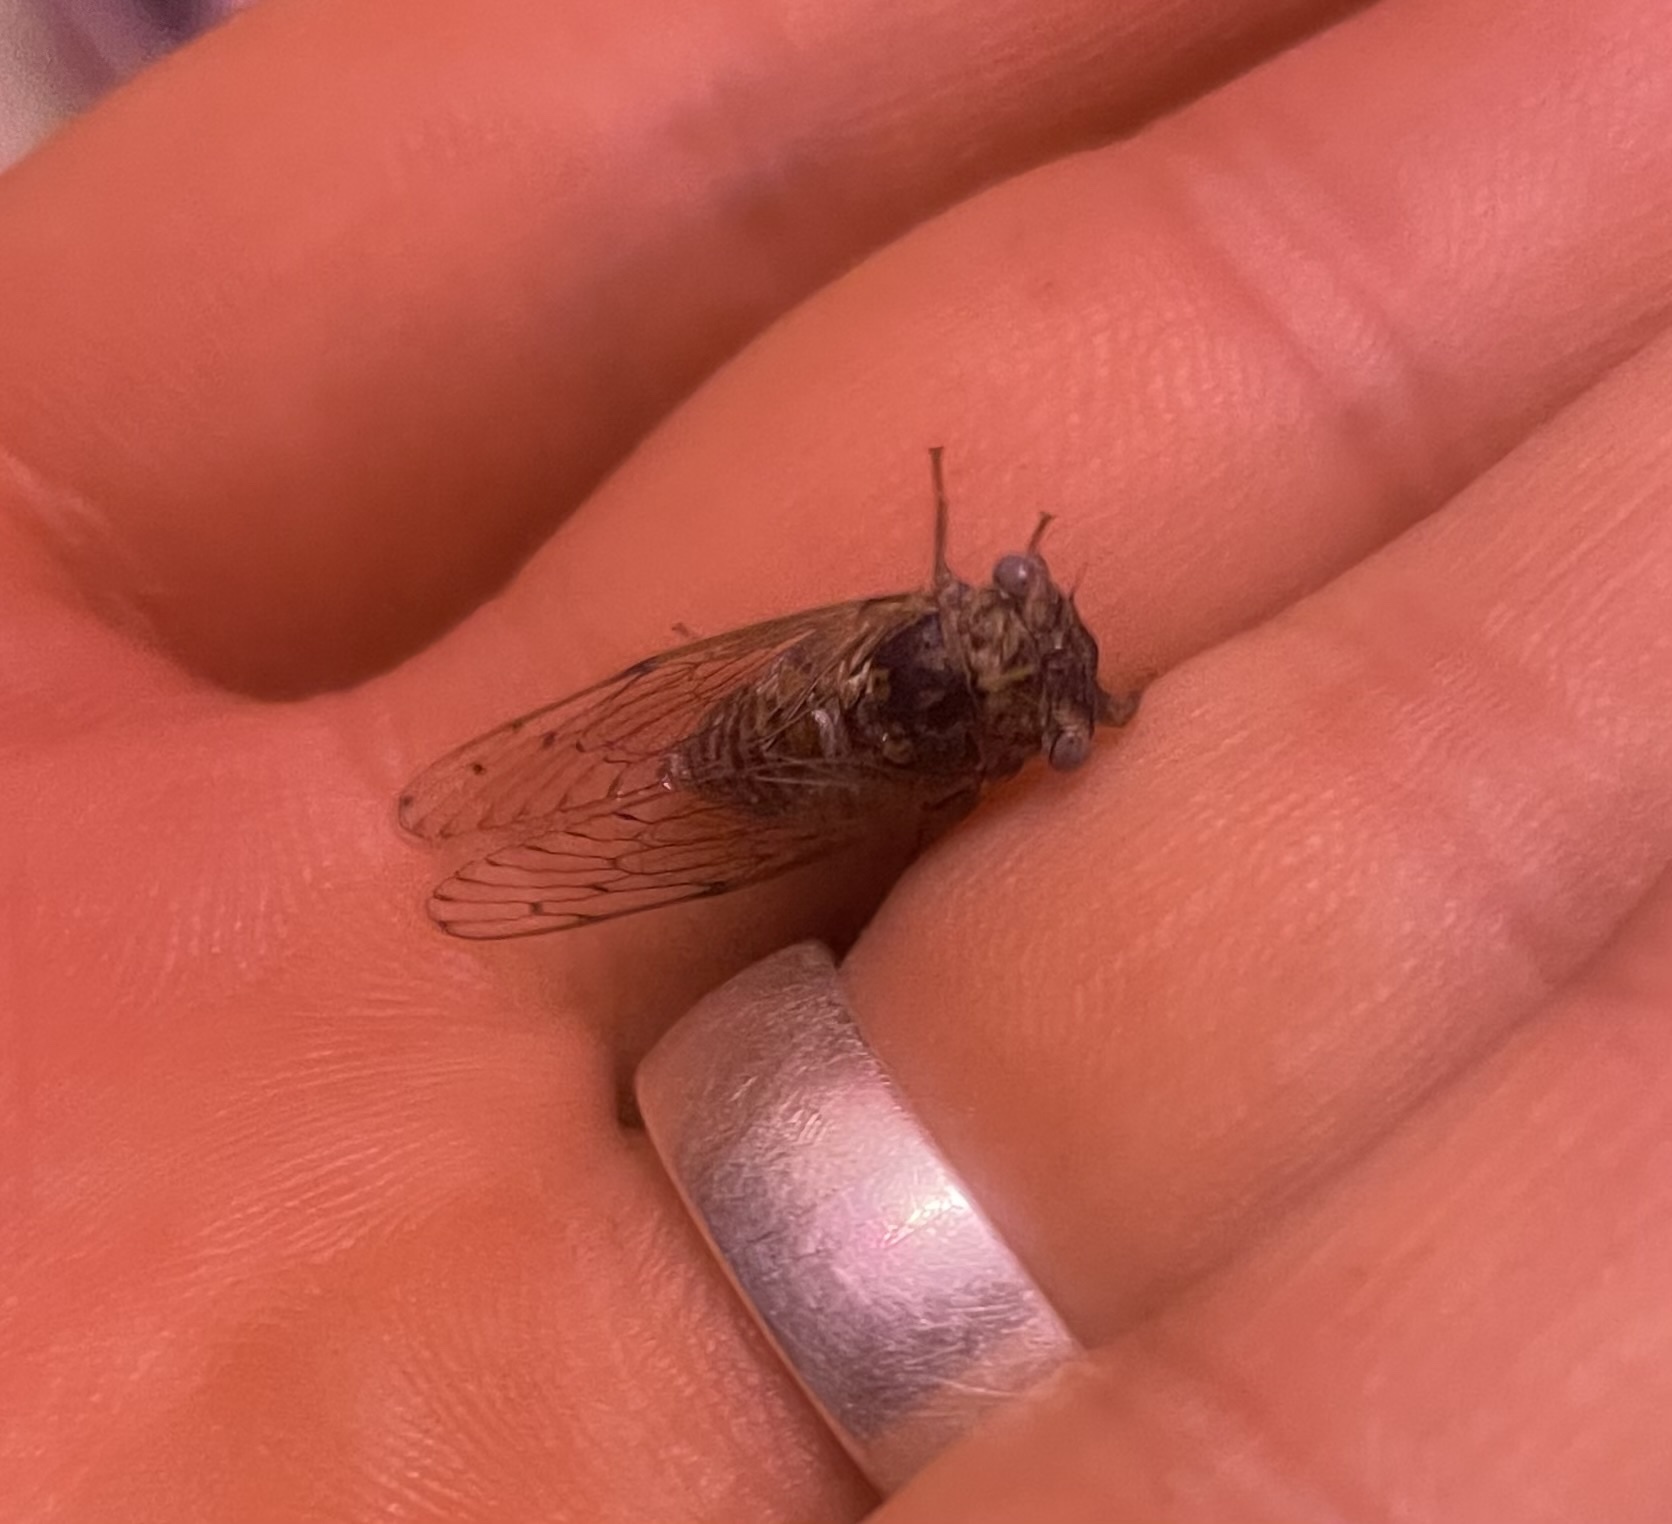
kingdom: Animalia
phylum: Arthropoda
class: Insecta
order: Hemiptera
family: Cicadidae
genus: Pacarina
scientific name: Pacarina puella
